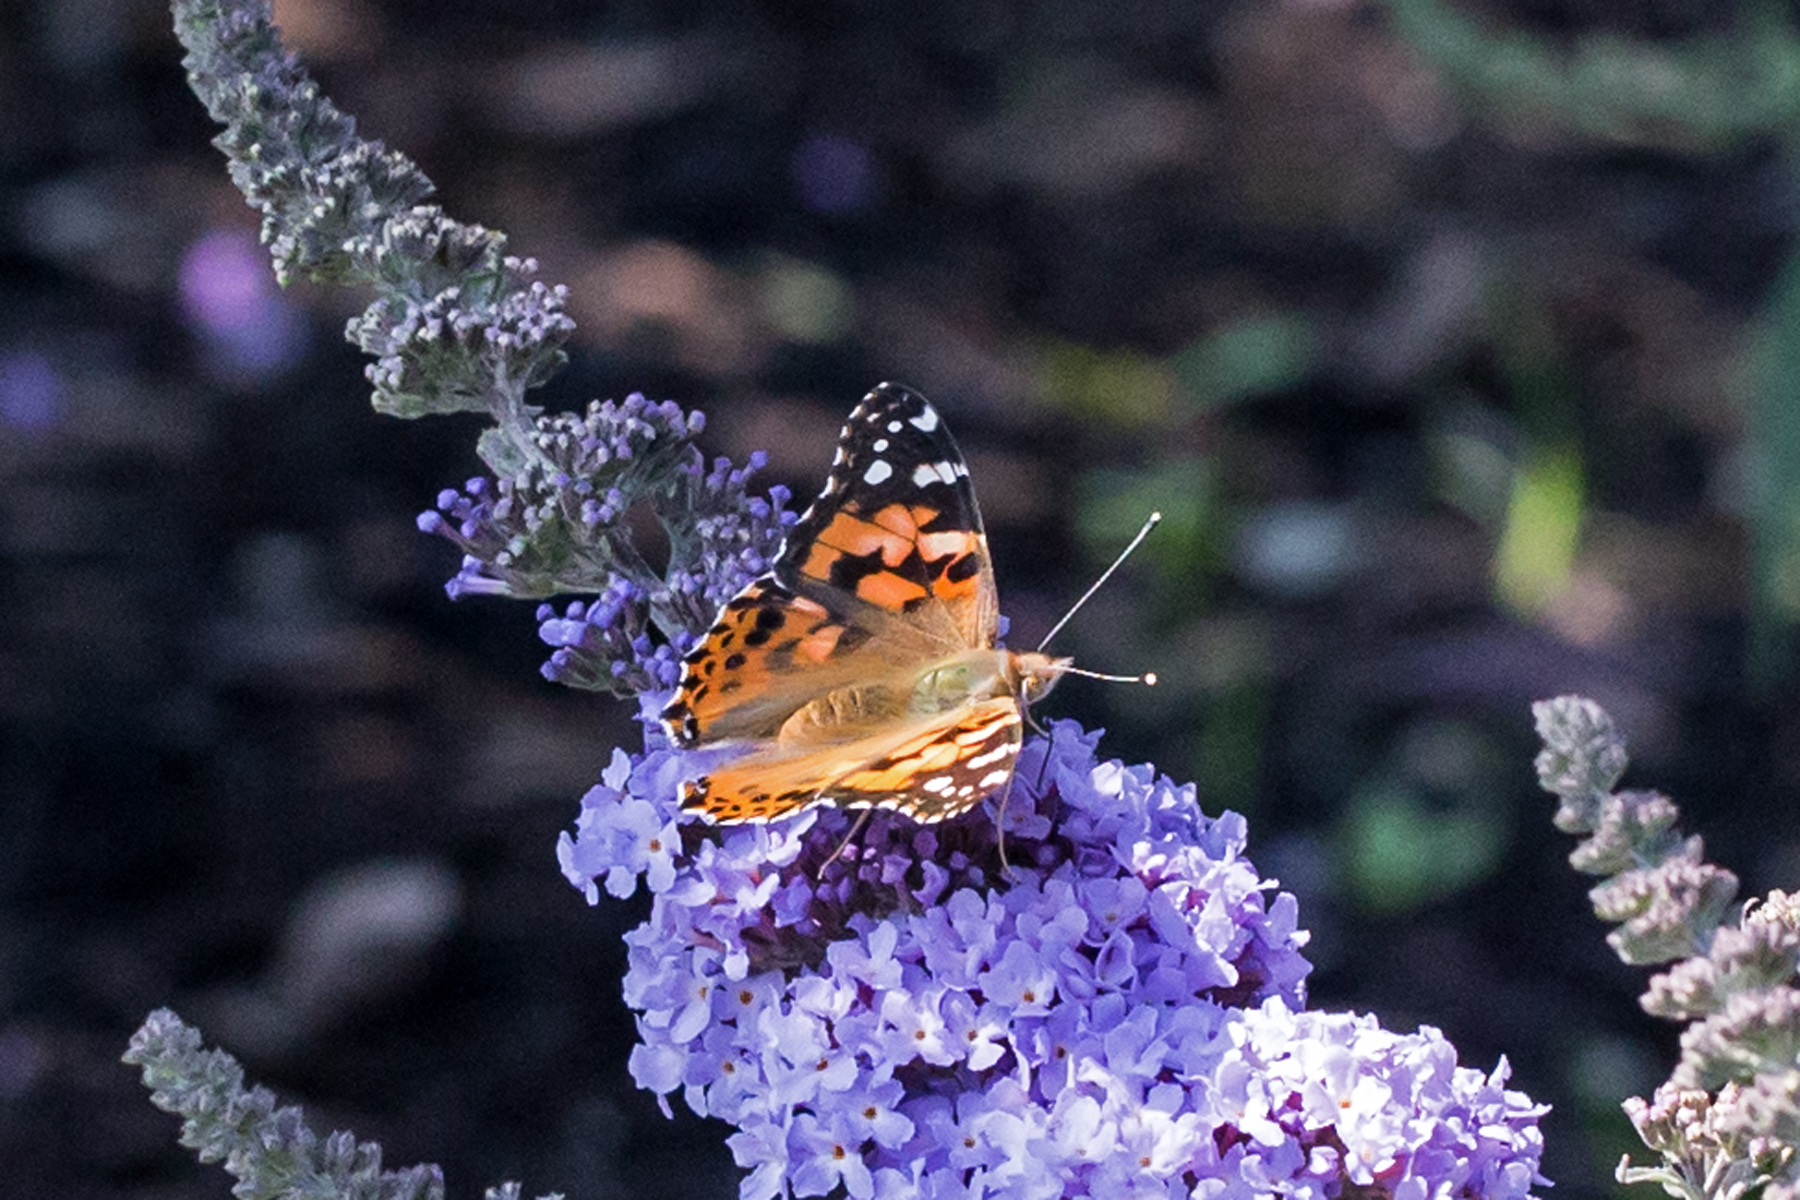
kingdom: Animalia
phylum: Arthropoda
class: Insecta
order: Lepidoptera
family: Nymphalidae
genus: Vanessa
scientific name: Vanessa cardui
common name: Painted lady
